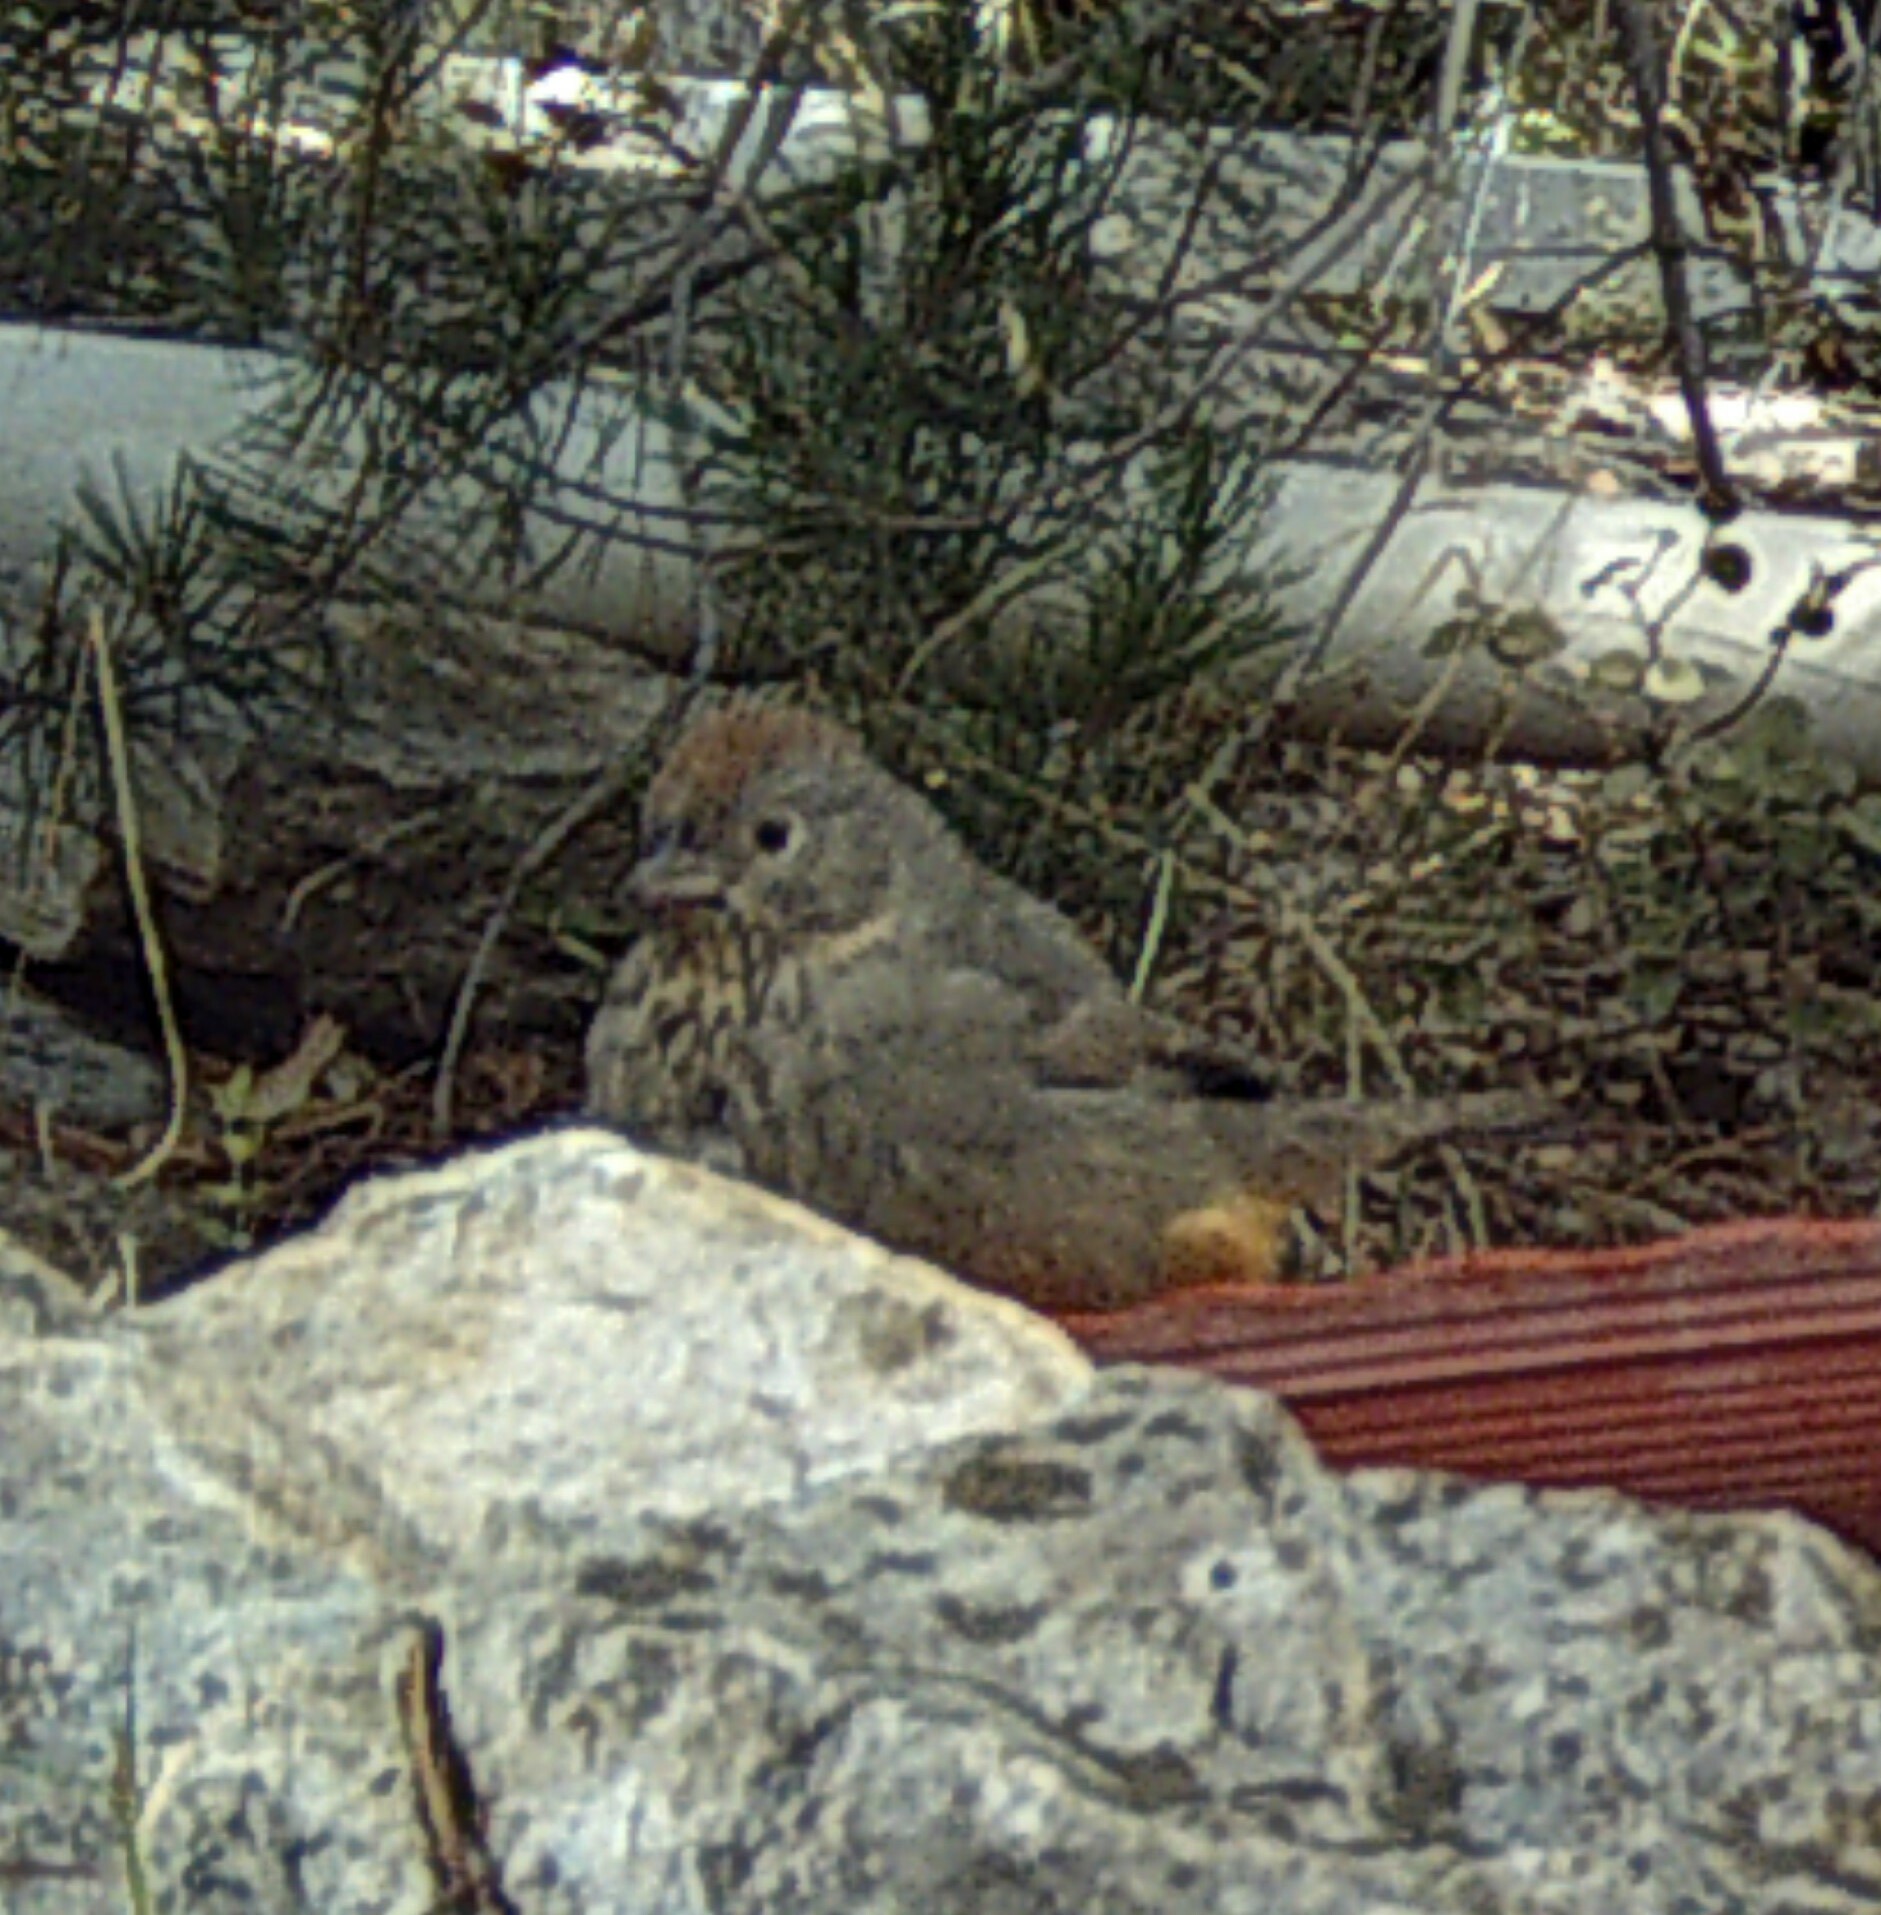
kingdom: Animalia
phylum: Chordata
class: Aves
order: Passeriformes
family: Passerellidae
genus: Melozone
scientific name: Melozone fusca
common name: Canyon towhee
